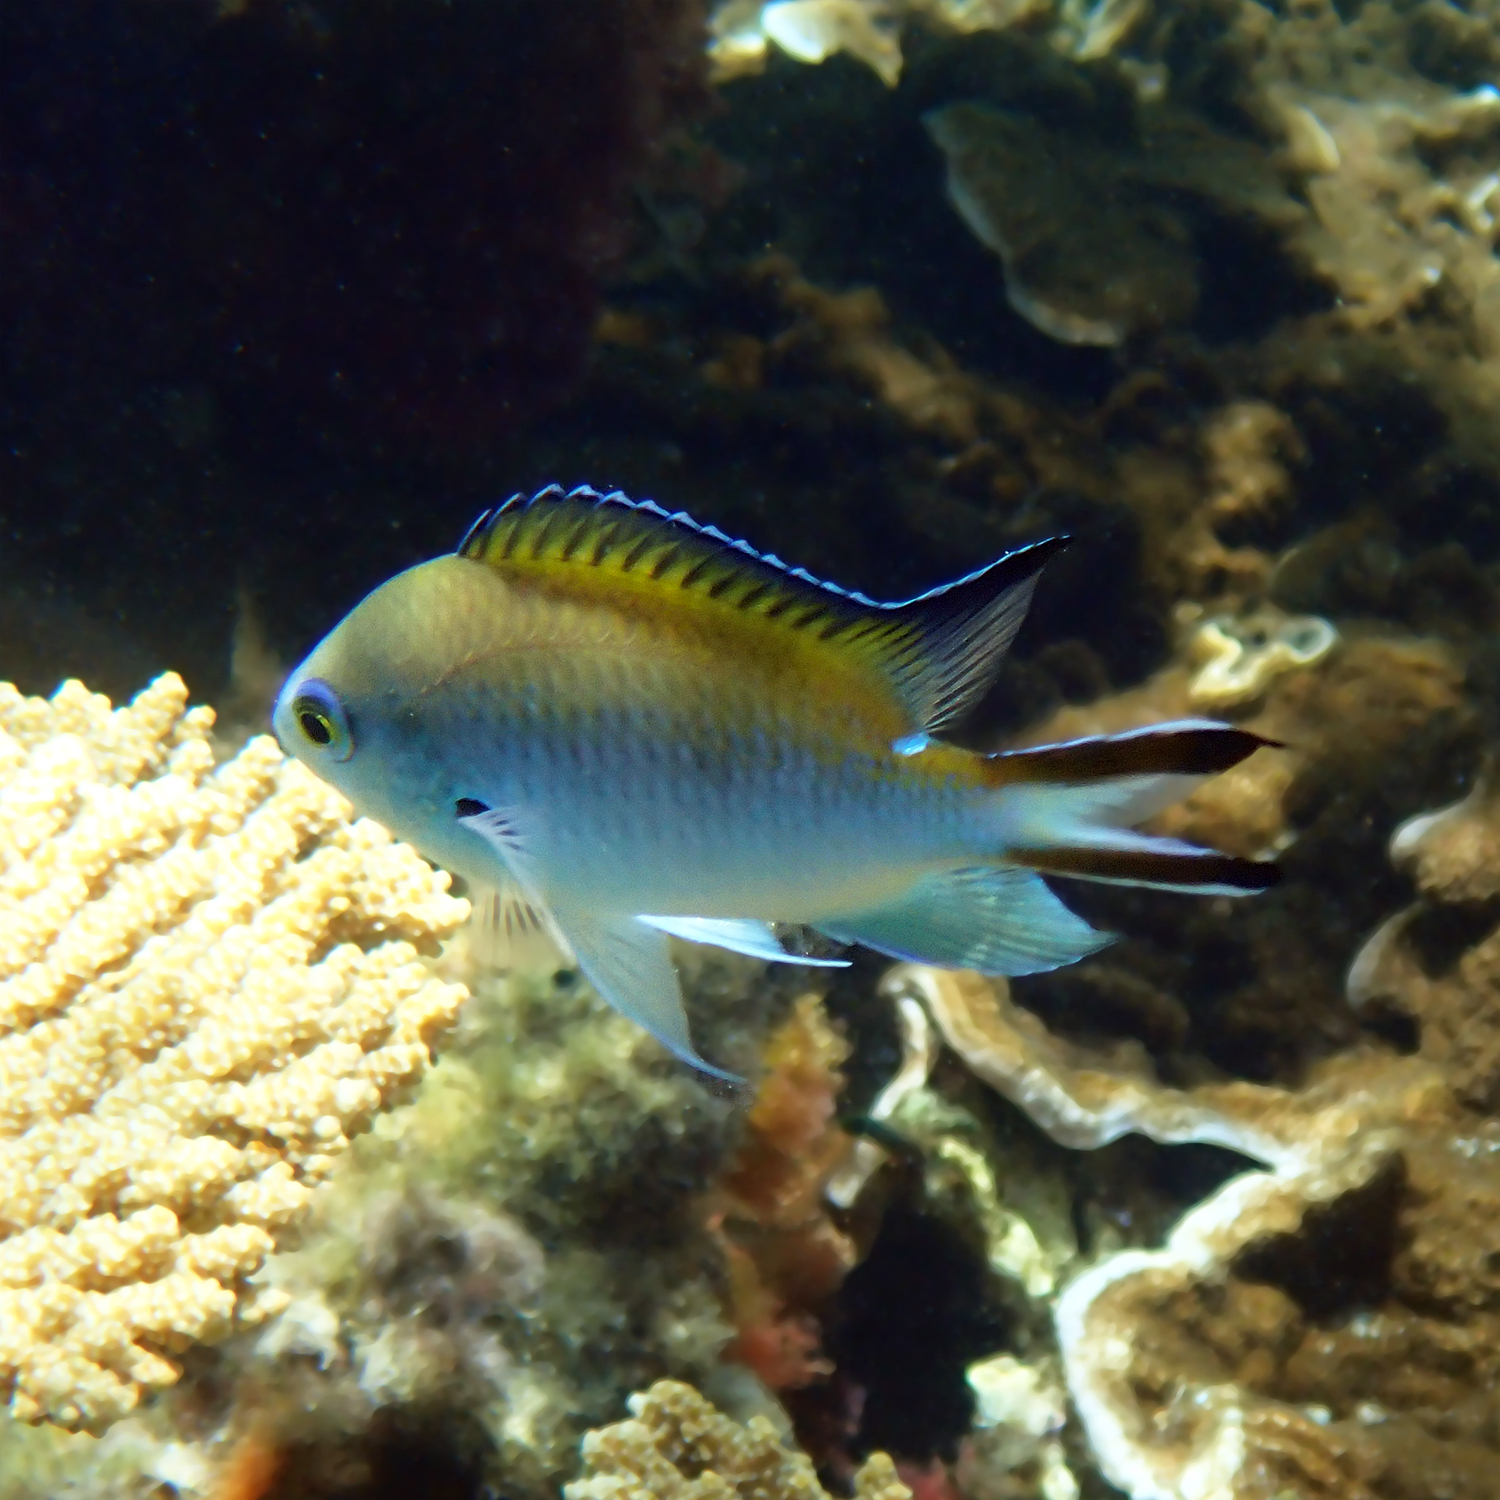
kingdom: Animalia
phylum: Chordata
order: Perciformes
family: Pomacentridae
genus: Chromis
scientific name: Chromis norfolkensis
